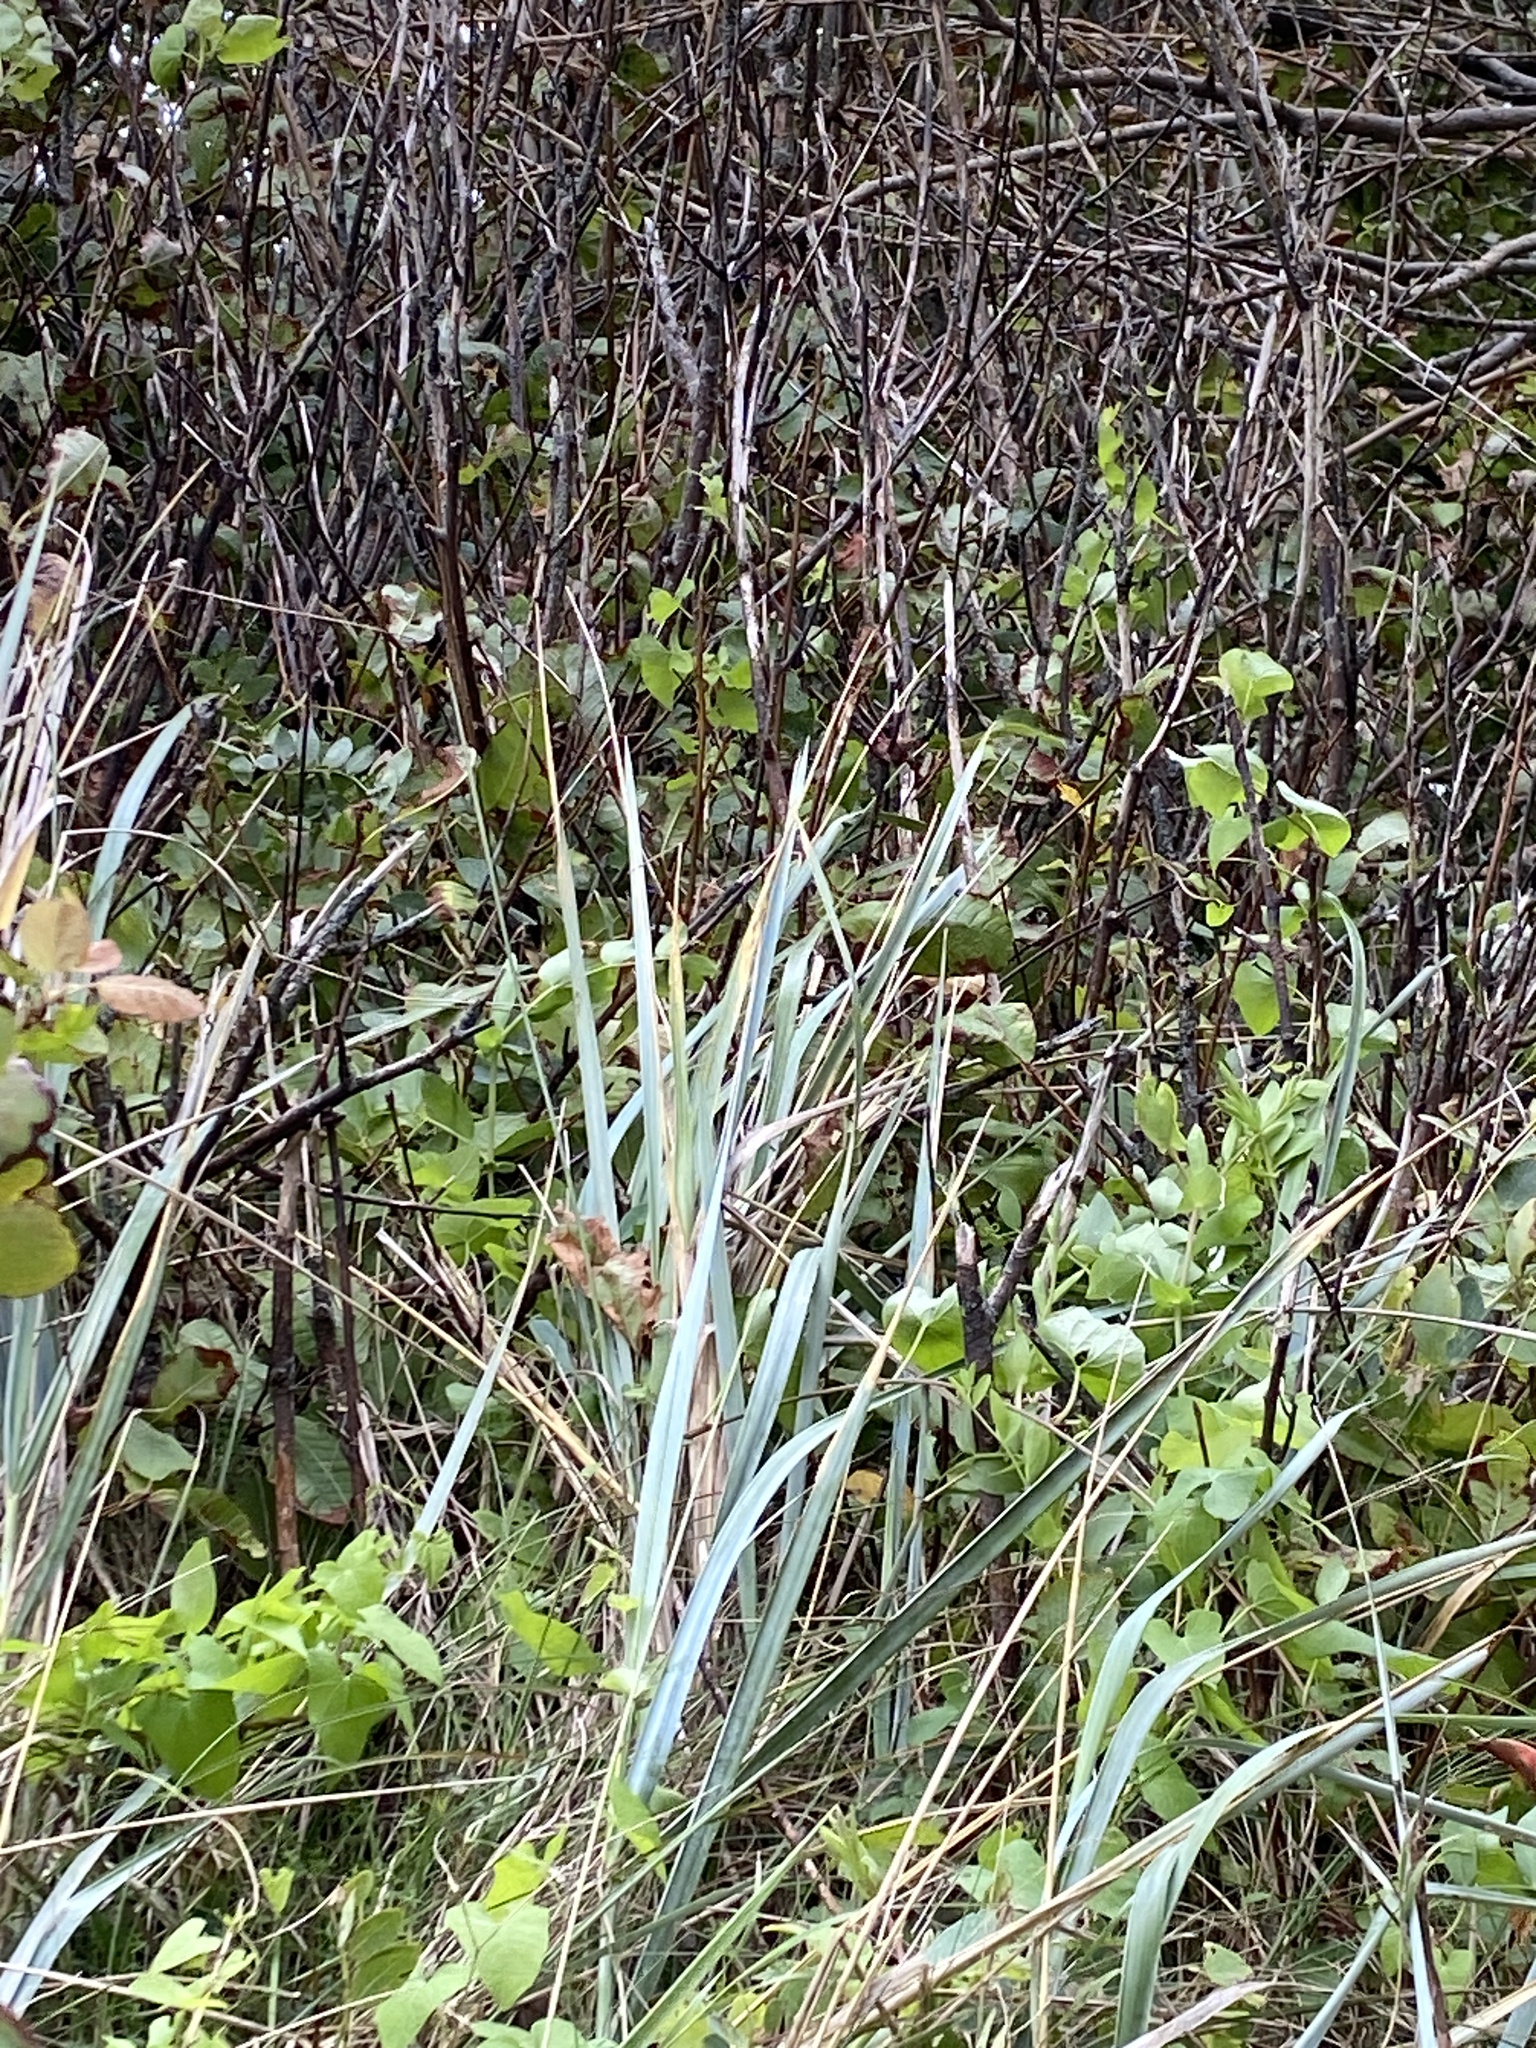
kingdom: Plantae
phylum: Tracheophyta
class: Liliopsida
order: Poales
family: Poaceae
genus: Leymus
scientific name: Leymus arenarius
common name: Lyme-grass
